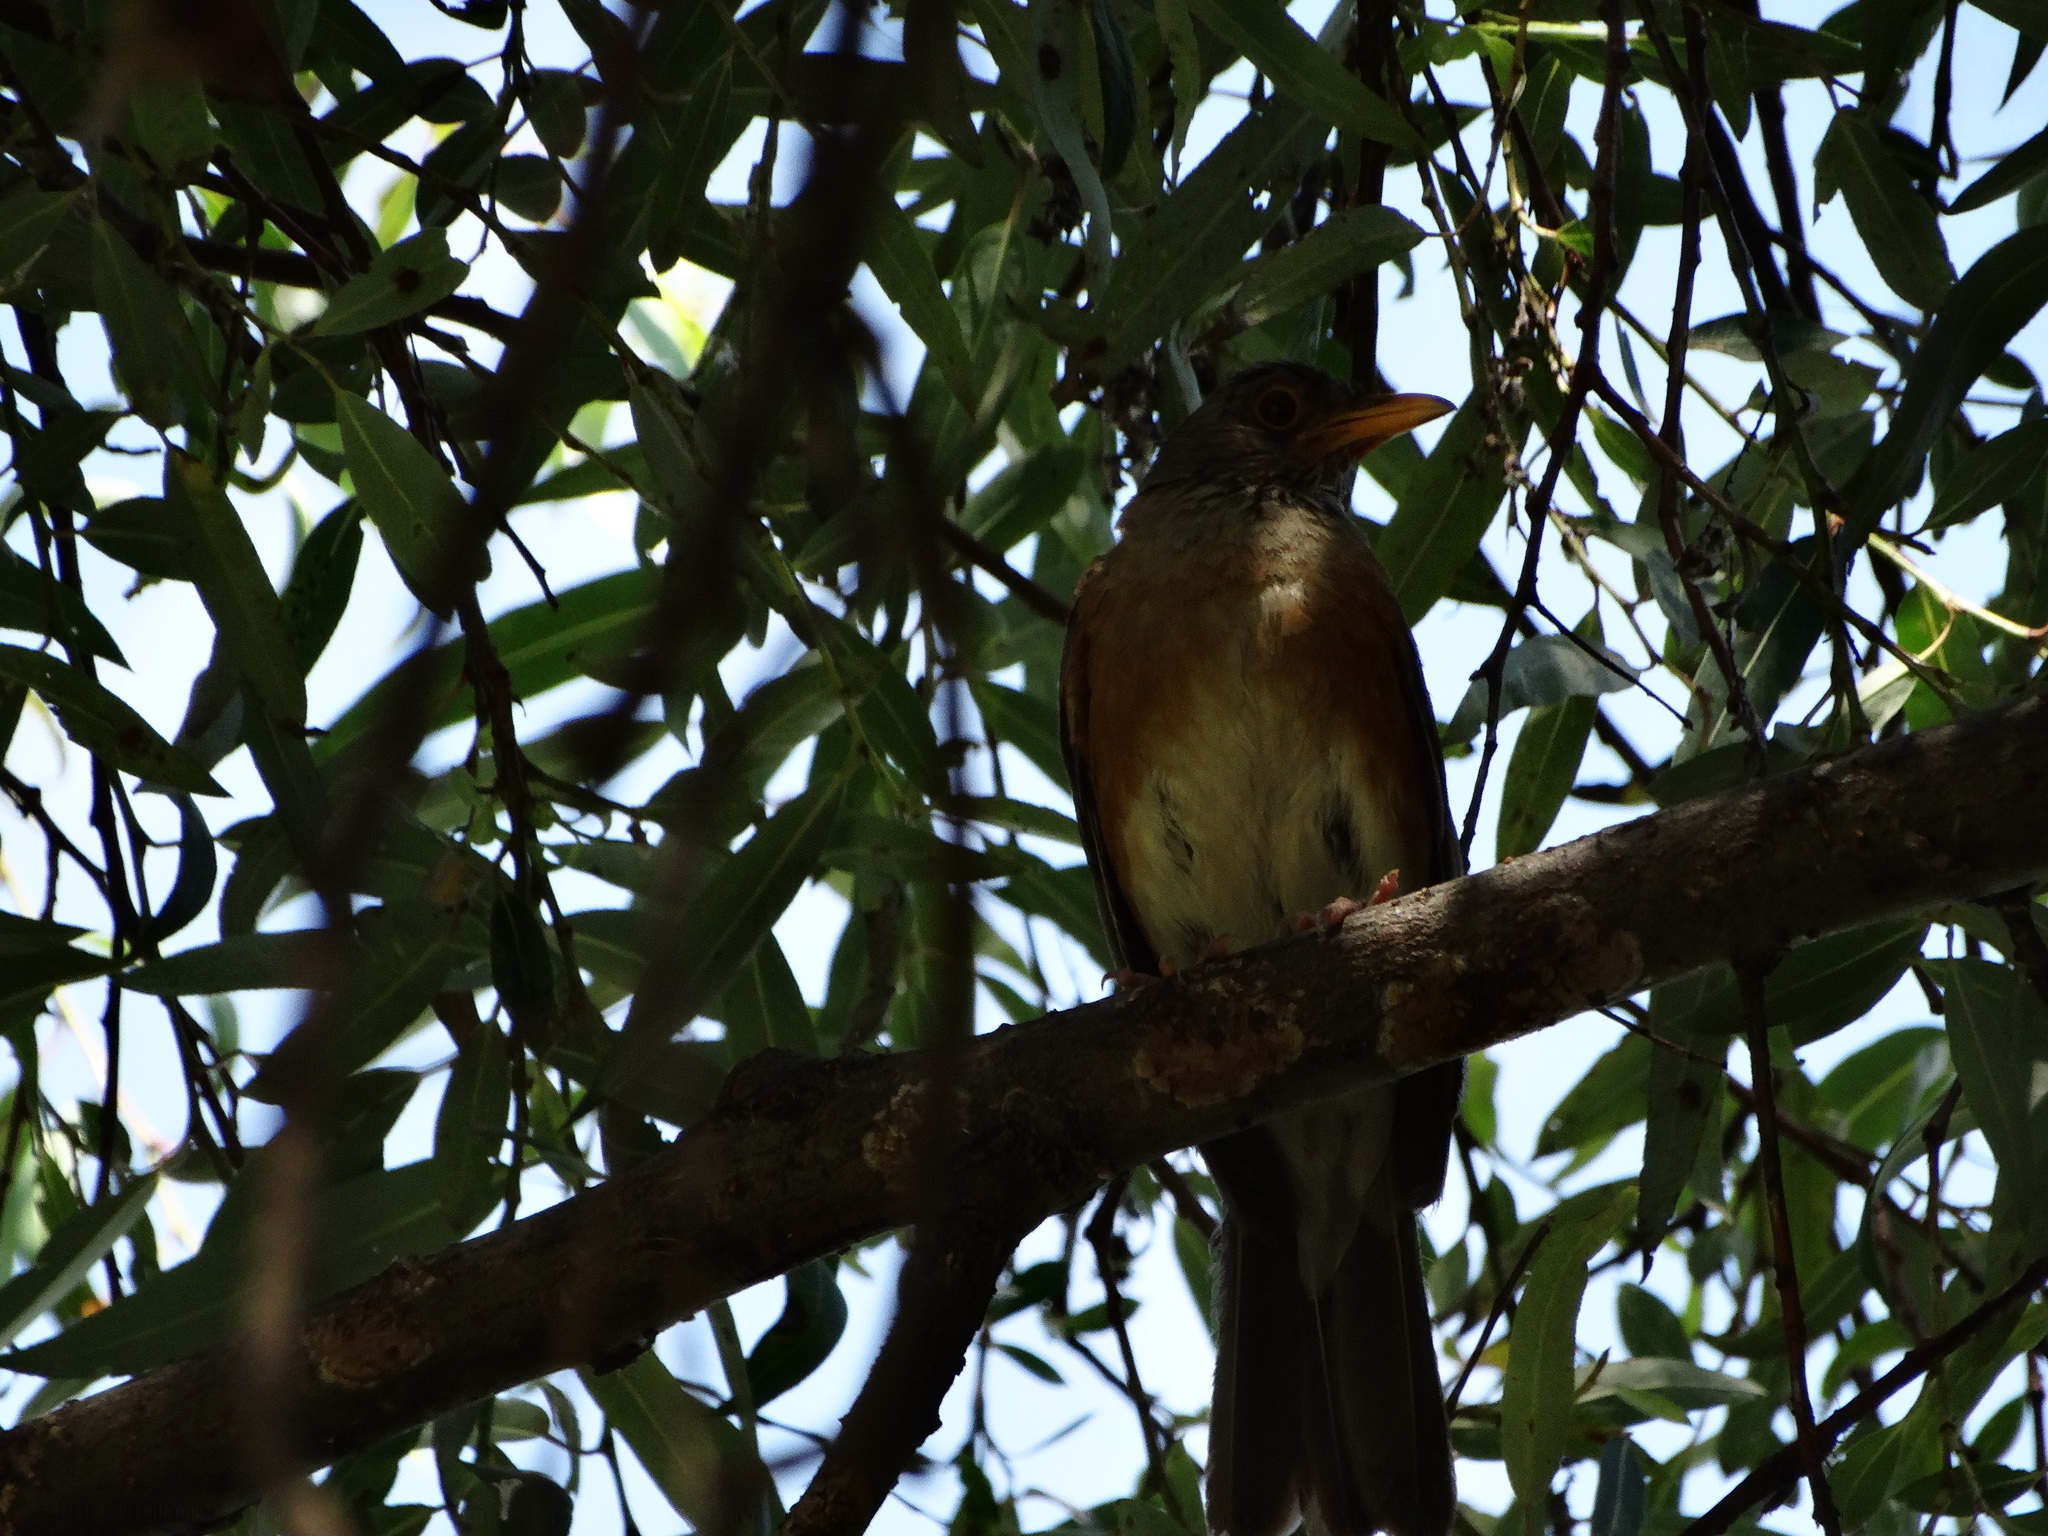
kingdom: Animalia
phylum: Chordata
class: Aves
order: Passeriformes
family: Turdidae
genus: Turdus
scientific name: Turdus rufopalliatus
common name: Rufous-backed robin
